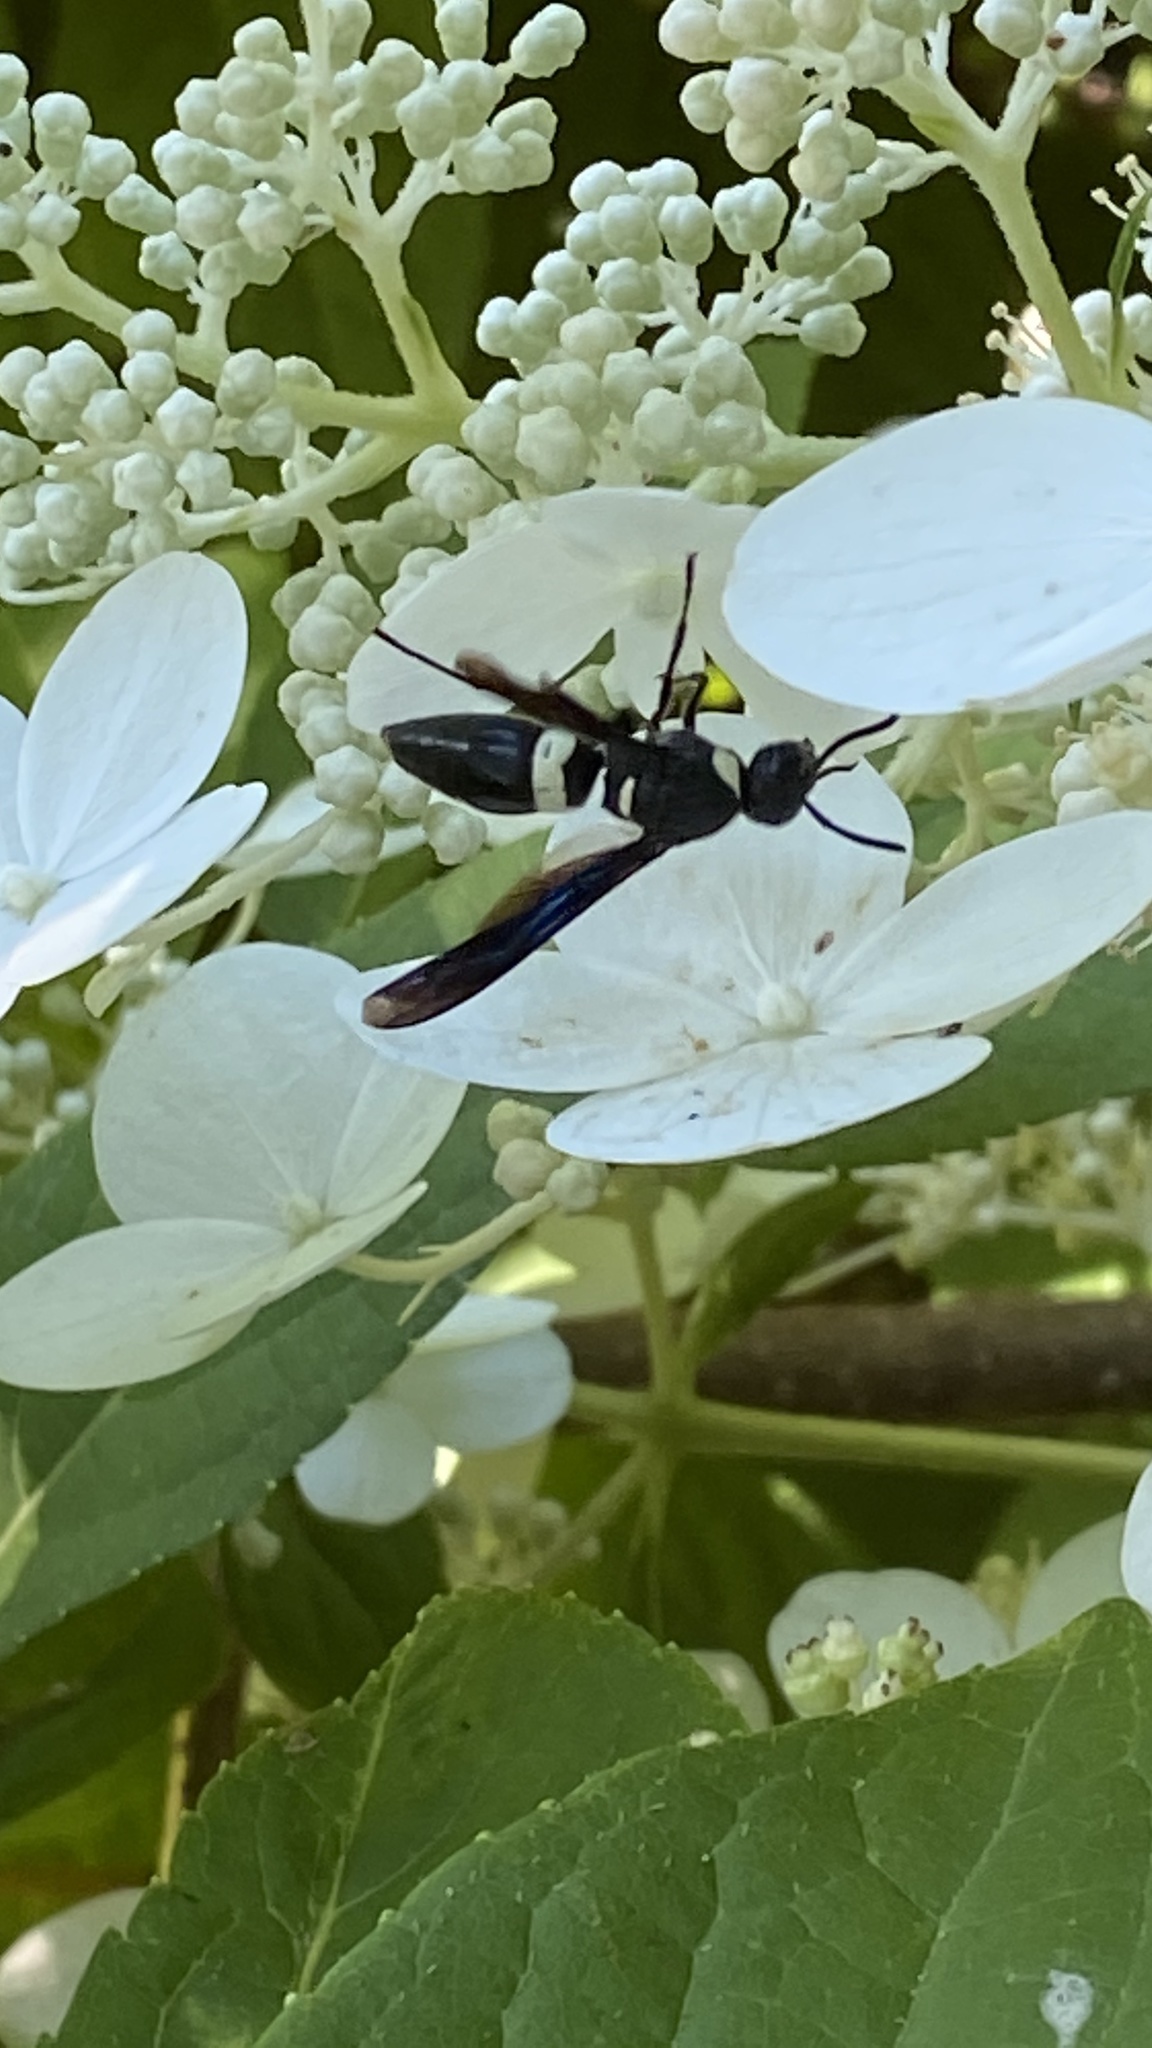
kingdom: Animalia
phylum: Arthropoda
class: Insecta
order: Hymenoptera
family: Eumenidae
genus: Monobia
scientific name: Monobia quadridens
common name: Four-toothed mason wasp
